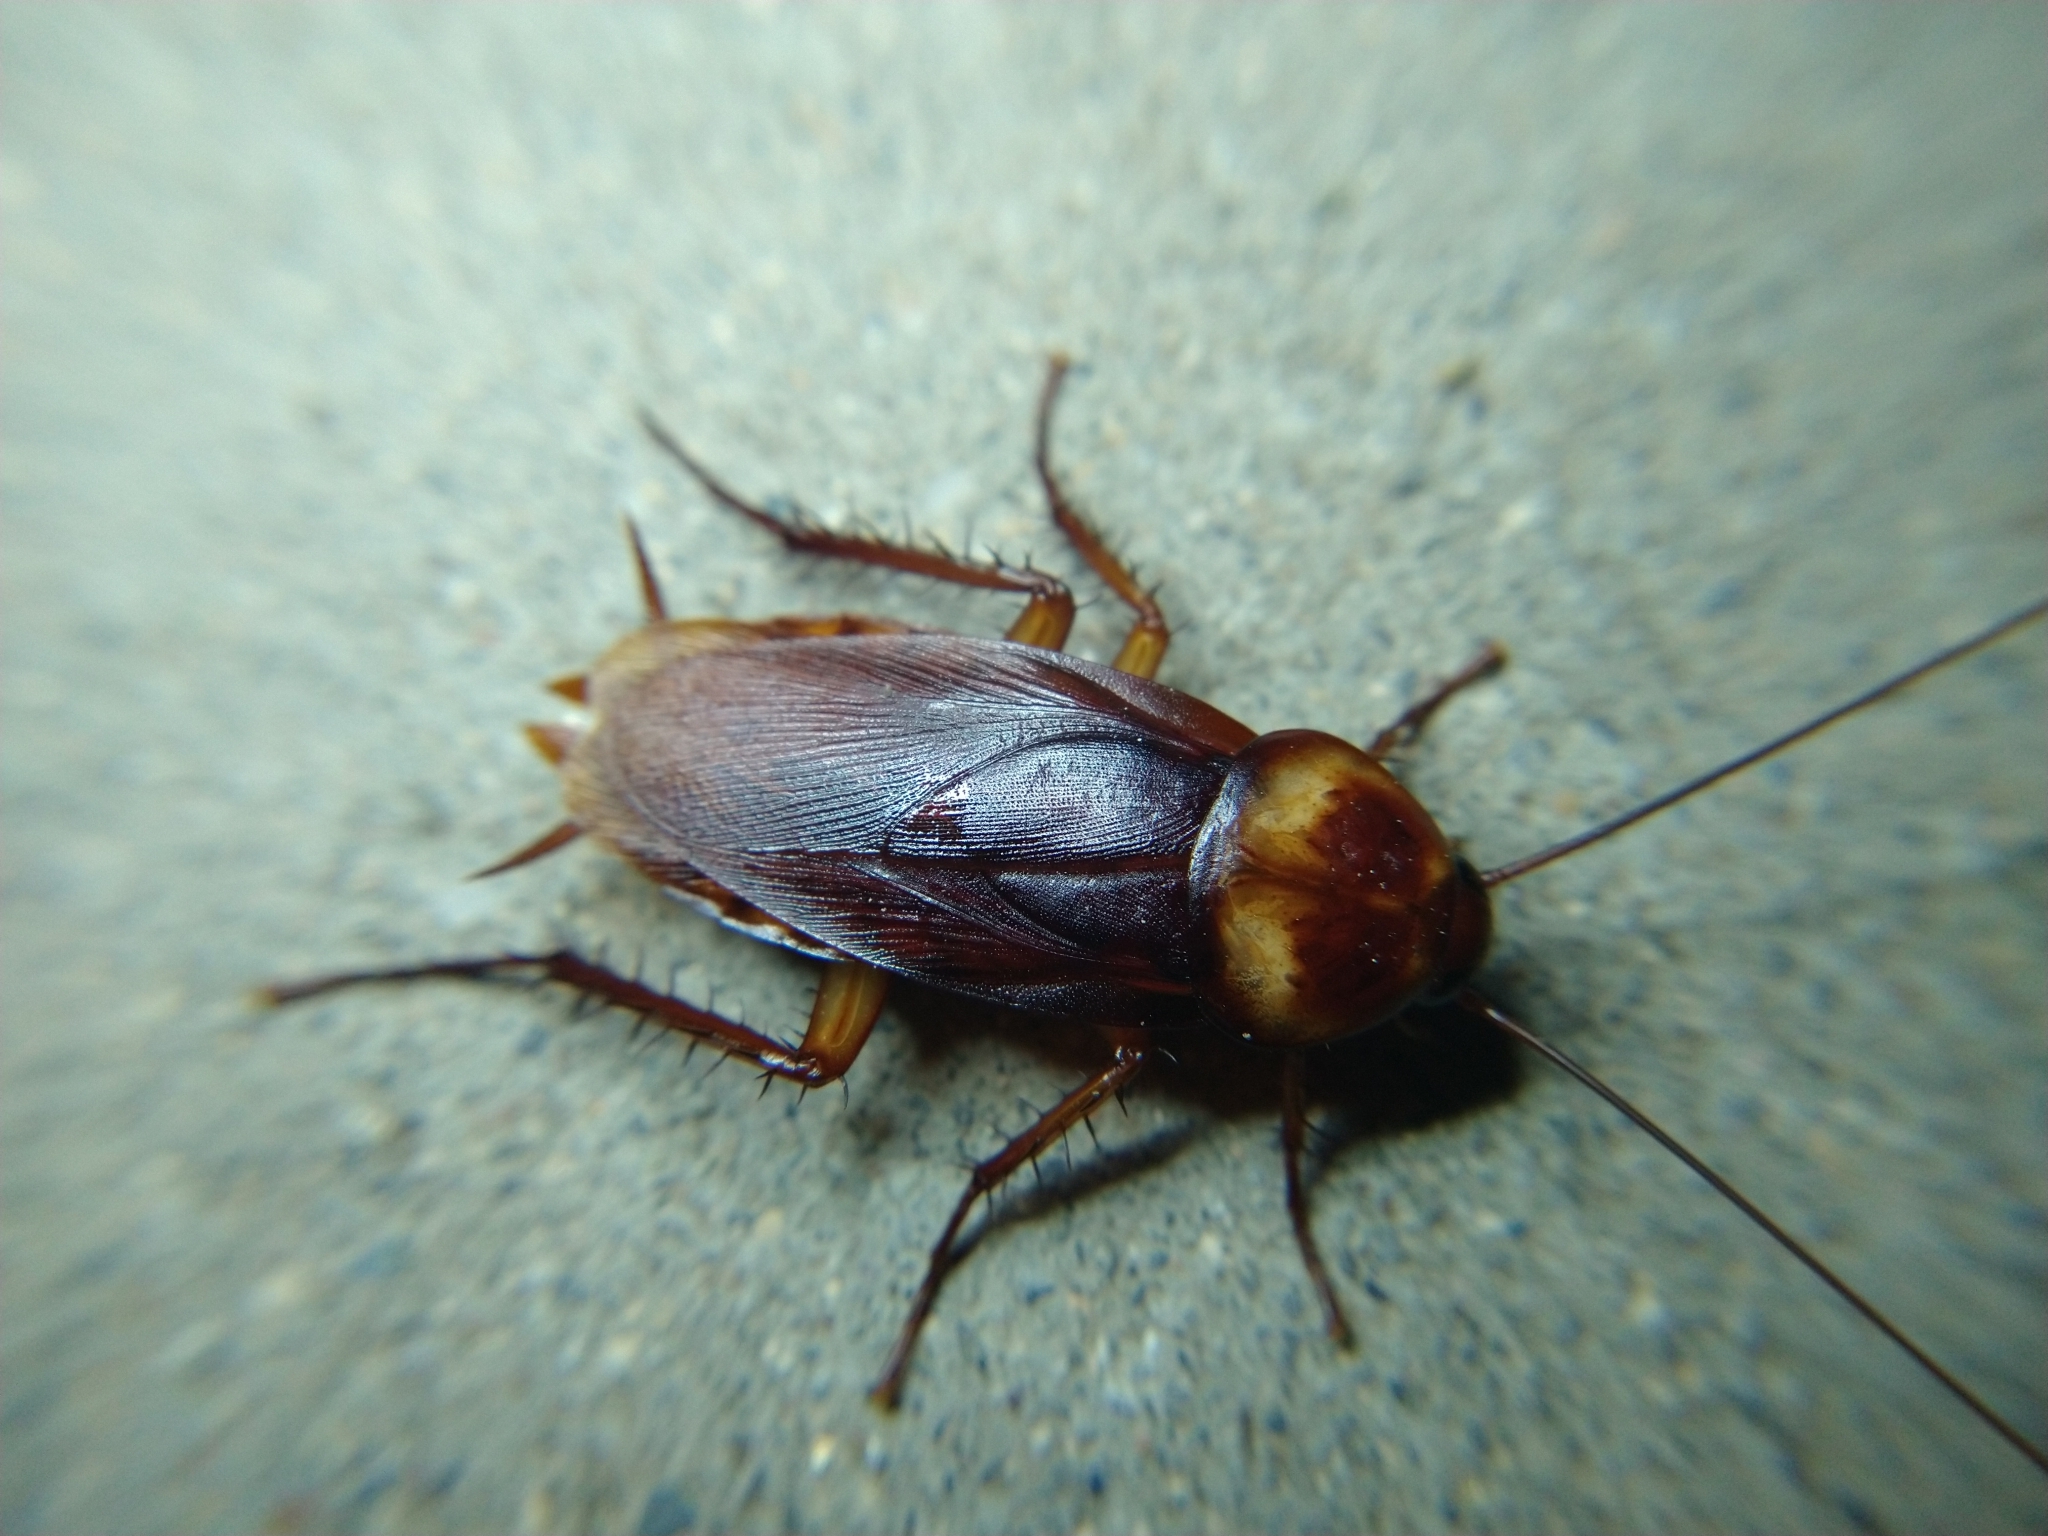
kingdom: Animalia
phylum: Arthropoda
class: Insecta
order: Blattodea
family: Blattidae
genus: Periplaneta
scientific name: Periplaneta americana
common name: American cockroach
